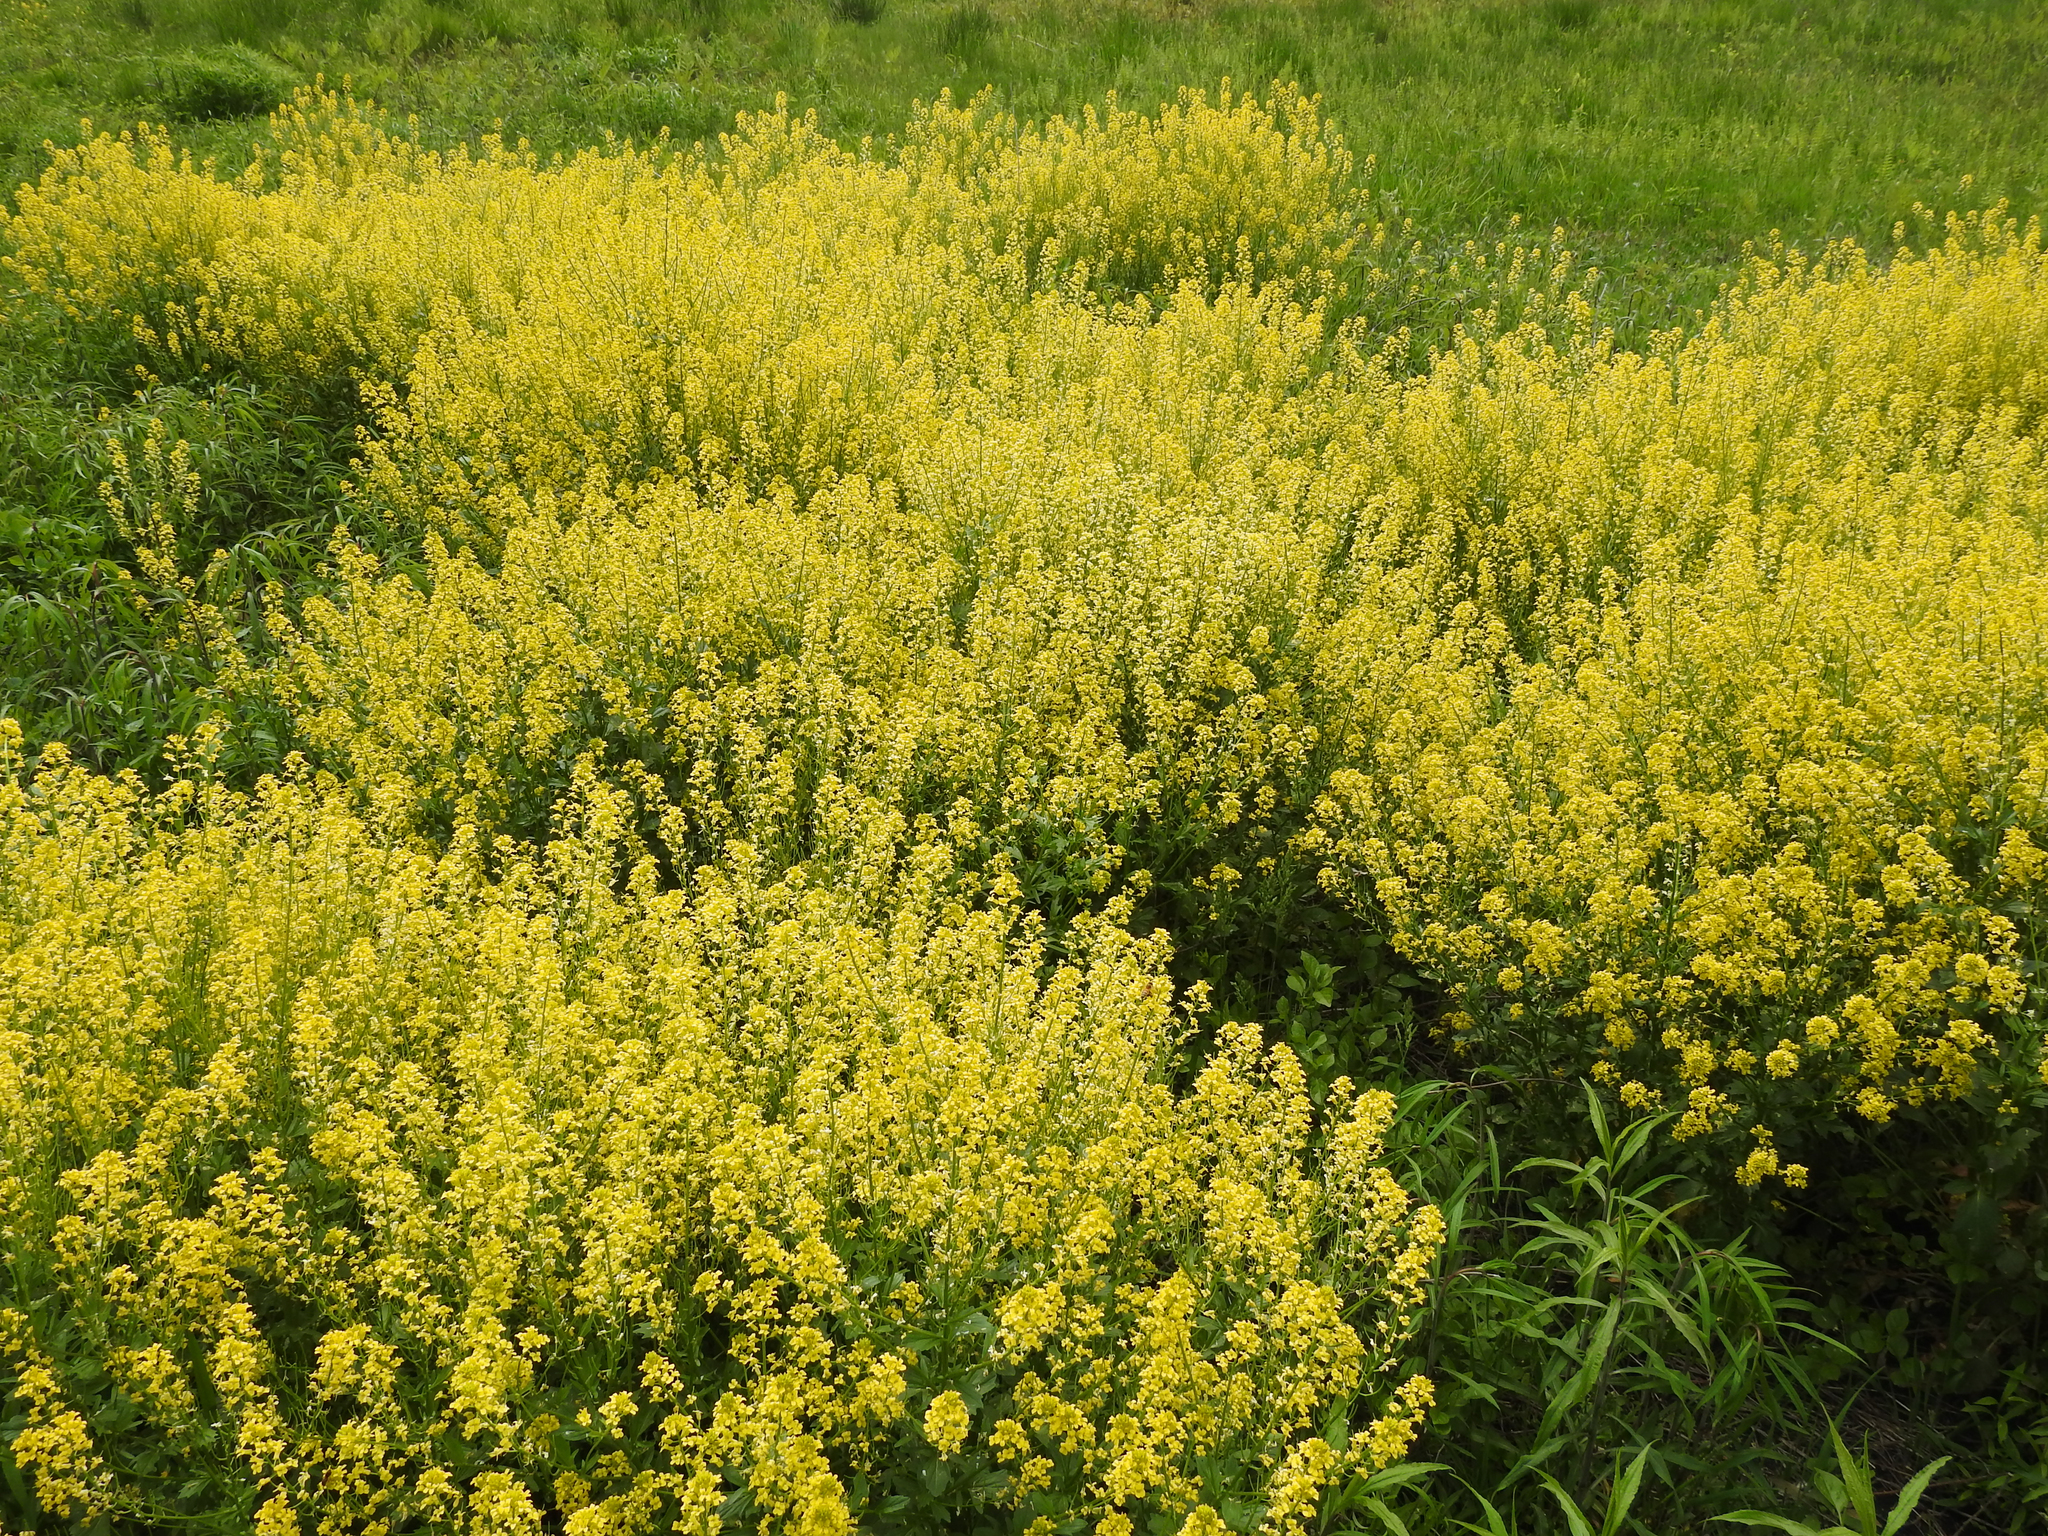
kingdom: Plantae
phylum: Tracheophyta
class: Magnoliopsida
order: Brassicales
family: Brassicaceae
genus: Barbarea
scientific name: Barbarea vulgaris
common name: Cressy-greens
